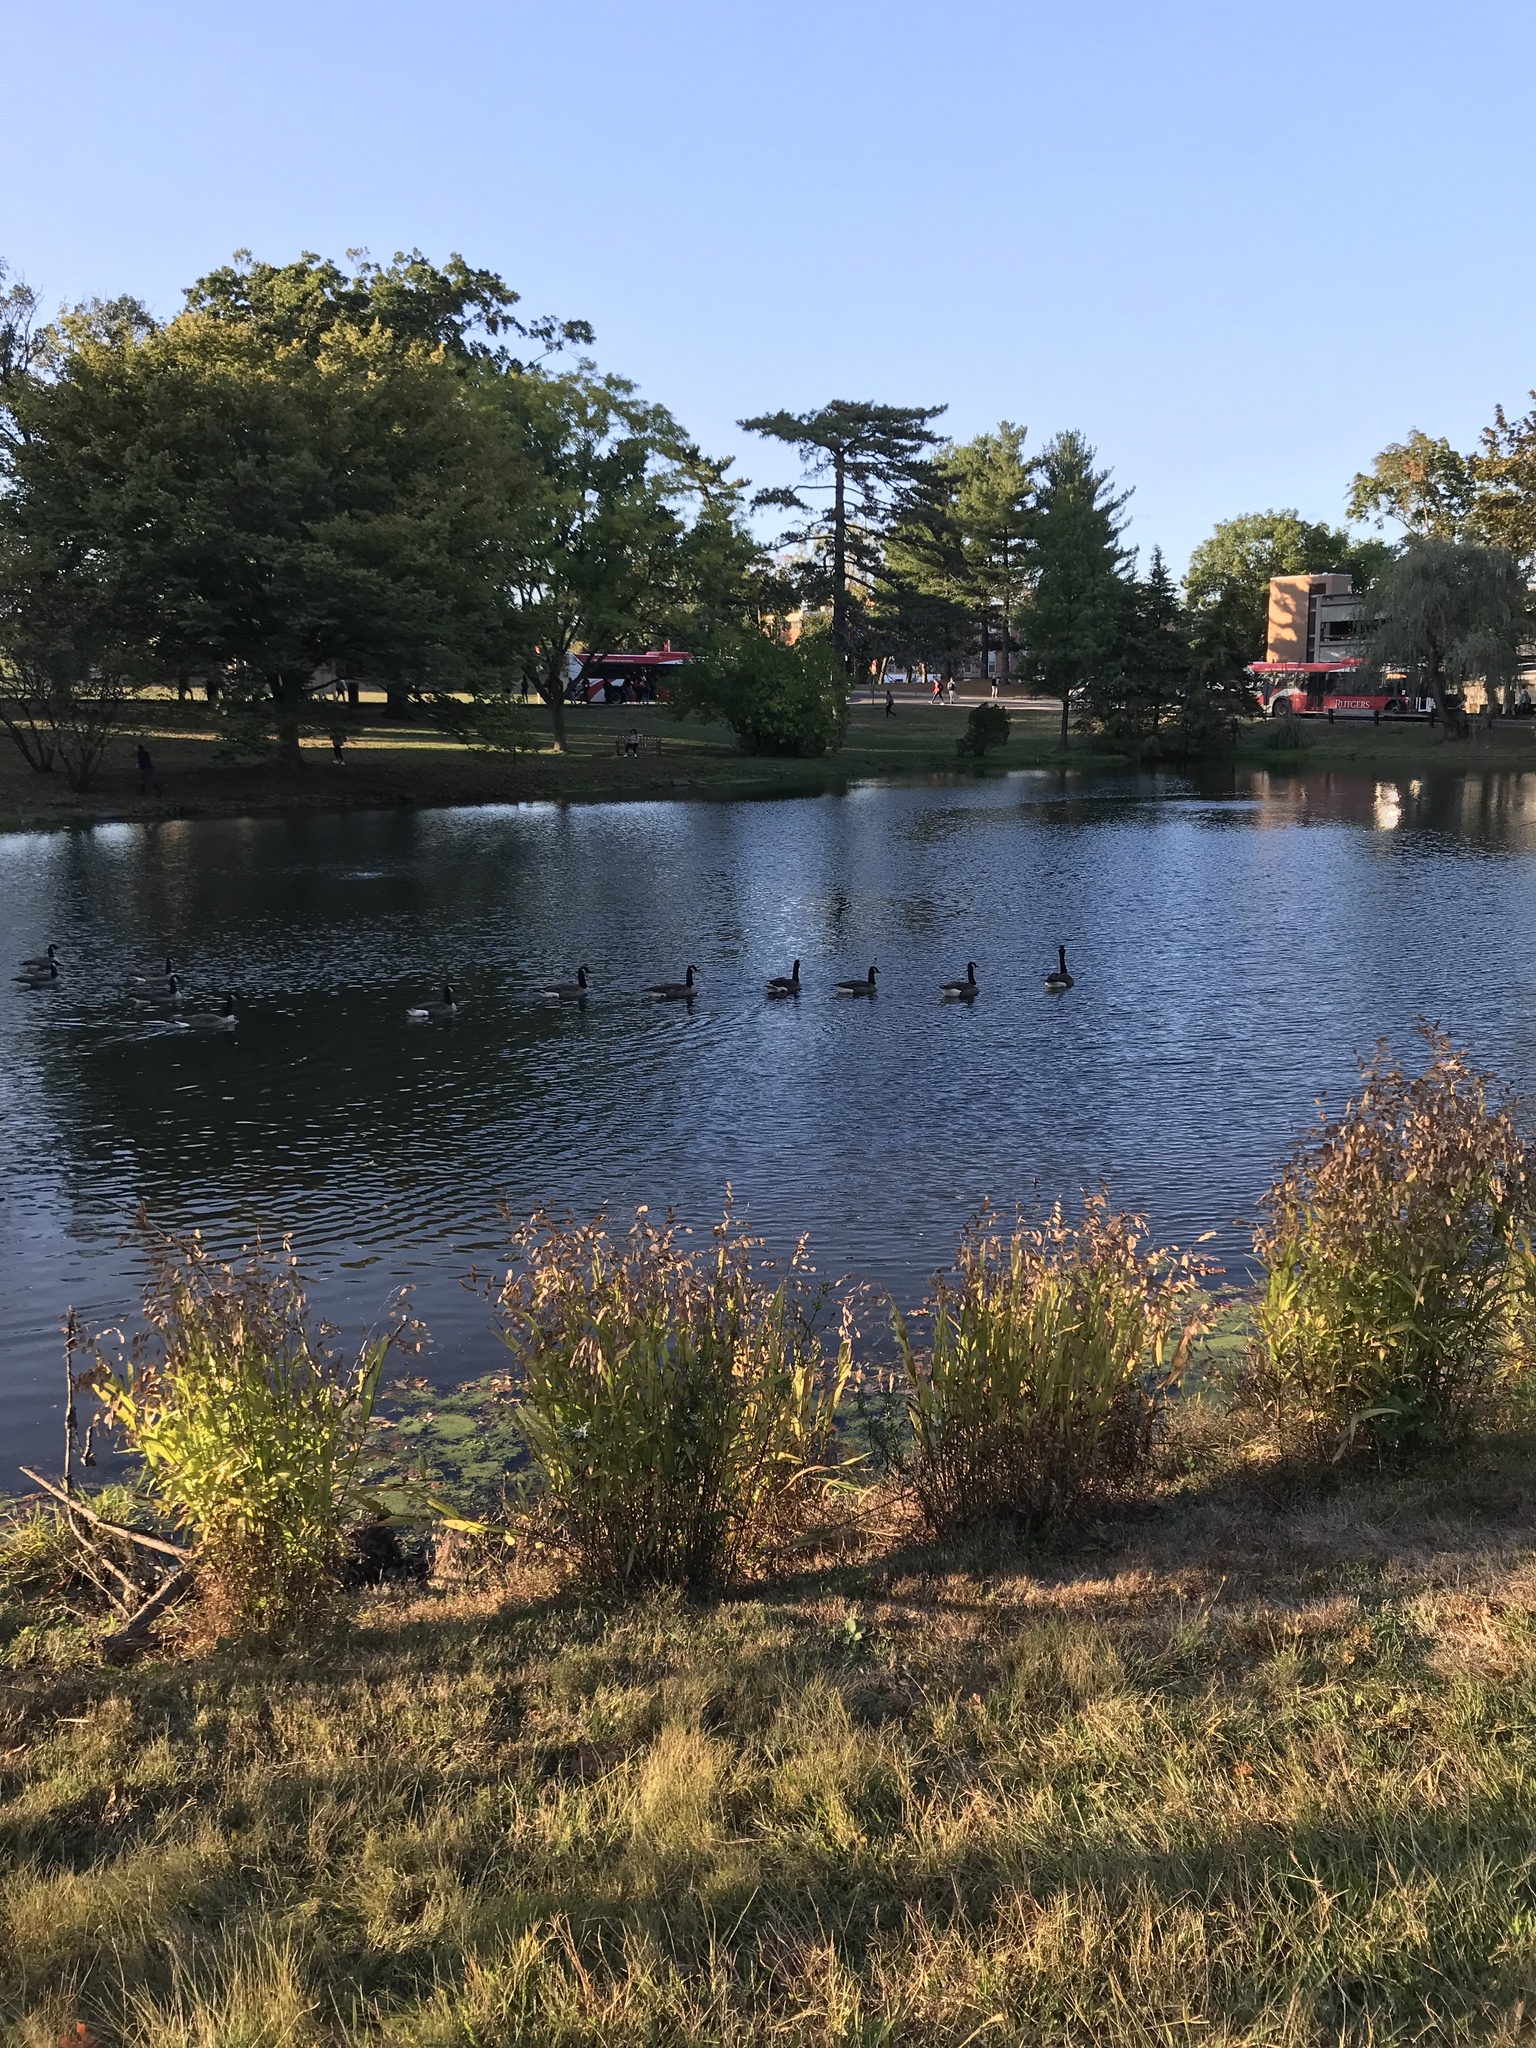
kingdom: Animalia
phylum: Chordata
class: Aves
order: Anseriformes
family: Anatidae
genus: Branta
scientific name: Branta canadensis
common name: Canada goose
